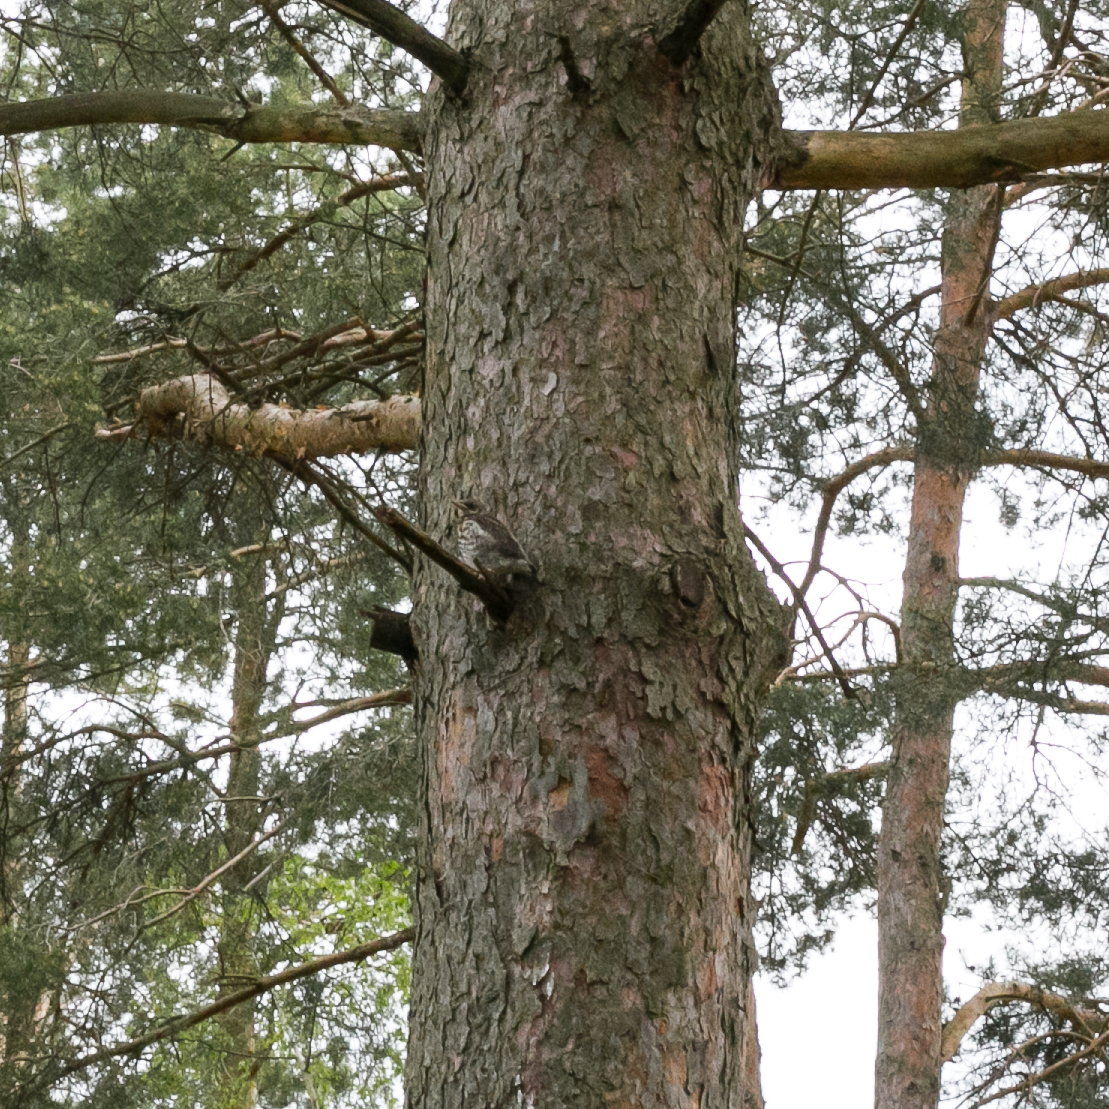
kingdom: Animalia
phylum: Chordata
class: Aves
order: Passeriformes
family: Turdidae
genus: Turdus
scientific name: Turdus pilaris
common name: Fieldfare
